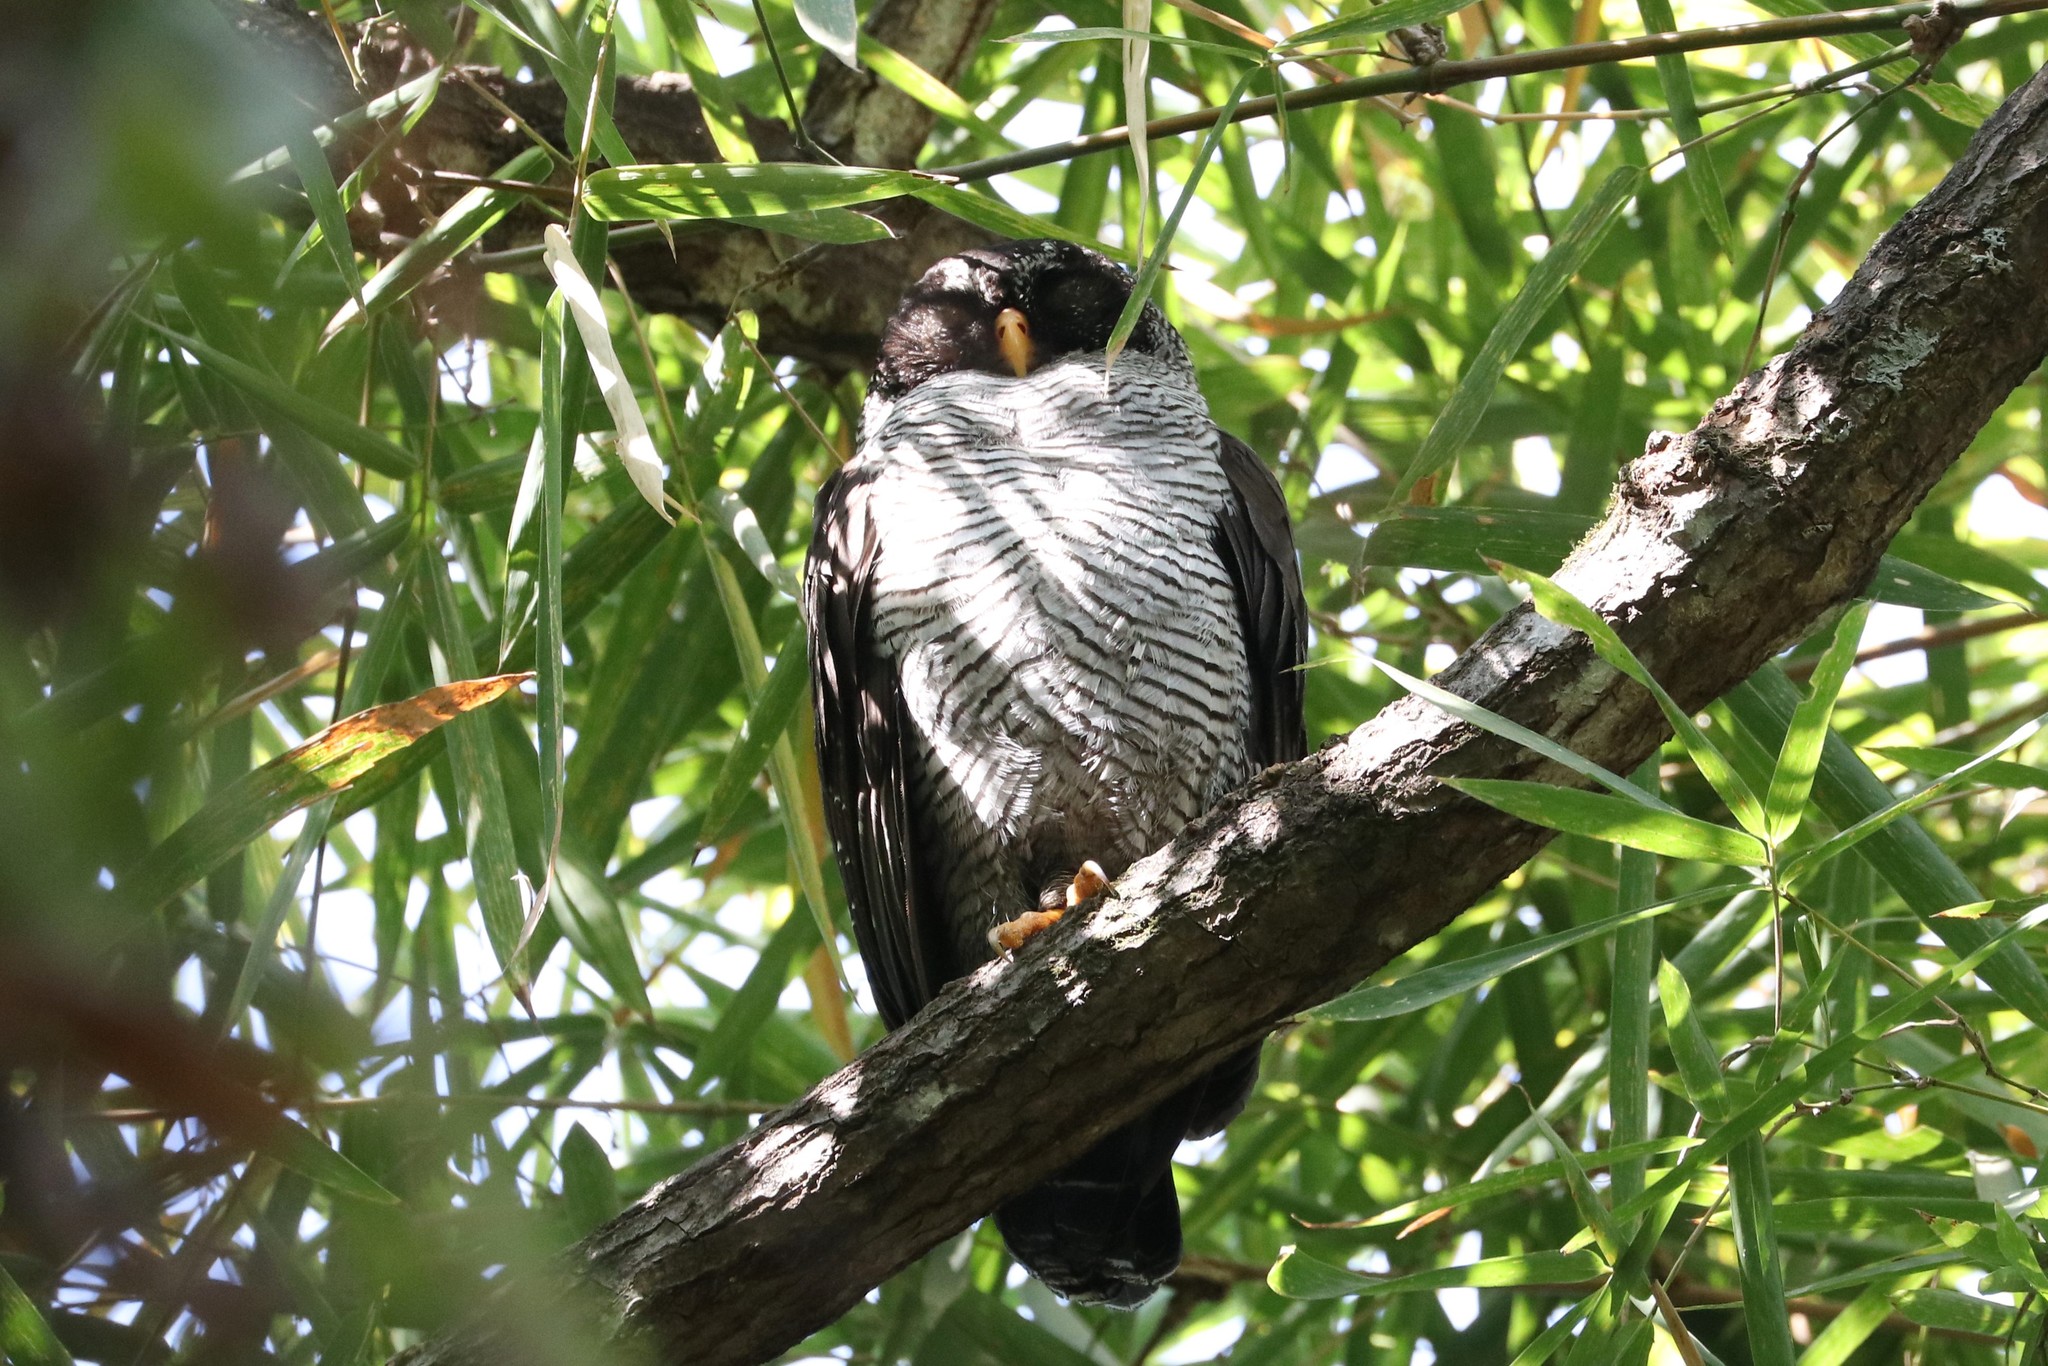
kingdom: Animalia
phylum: Chordata
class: Aves
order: Strigiformes
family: Strigidae
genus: Strix
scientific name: Strix nigrolineata
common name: Black-and-white owl
